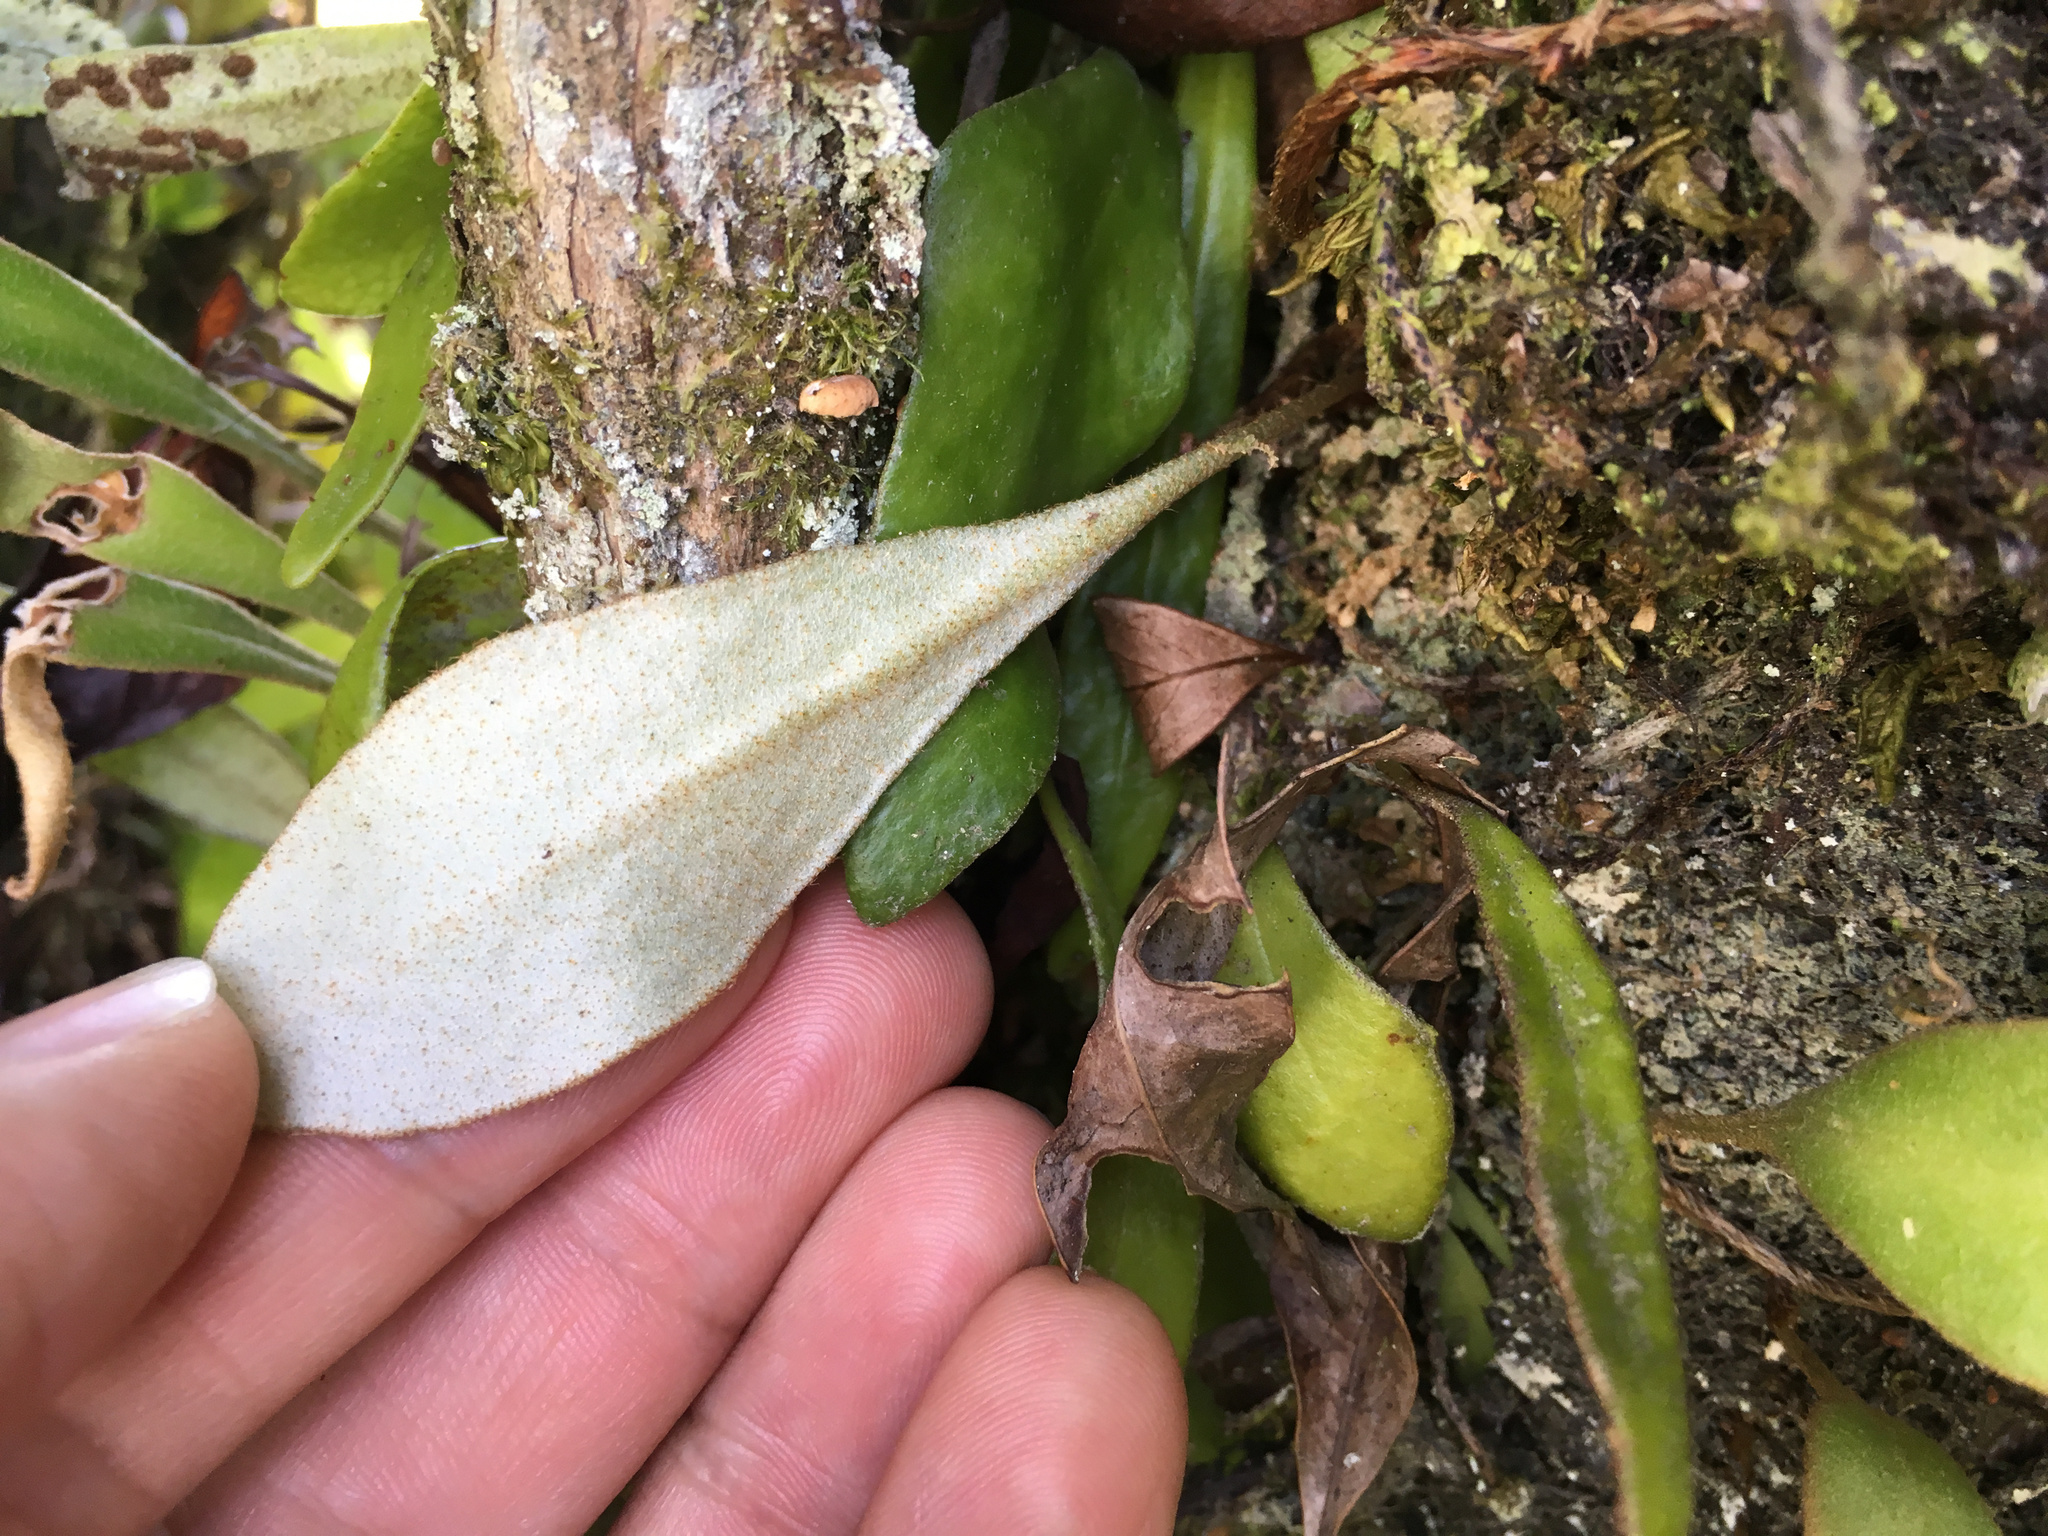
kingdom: Plantae
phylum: Tracheophyta
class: Polypodiopsida
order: Polypodiales
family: Polypodiaceae
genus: Pyrrosia
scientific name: Pyrrosia eleagnifolia
